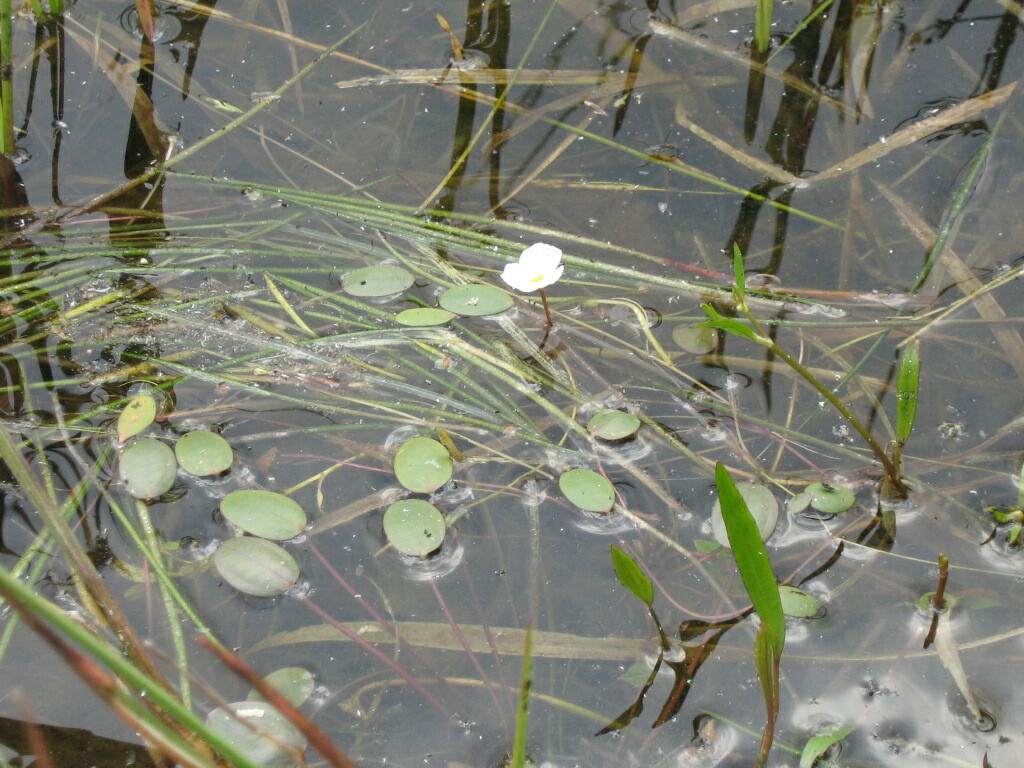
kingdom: Plantae
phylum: Tracheophyta
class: Liliopsida
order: Alismatales
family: Alismataceae
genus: Luronium
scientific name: Luronium natans
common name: Floating water-plantain
